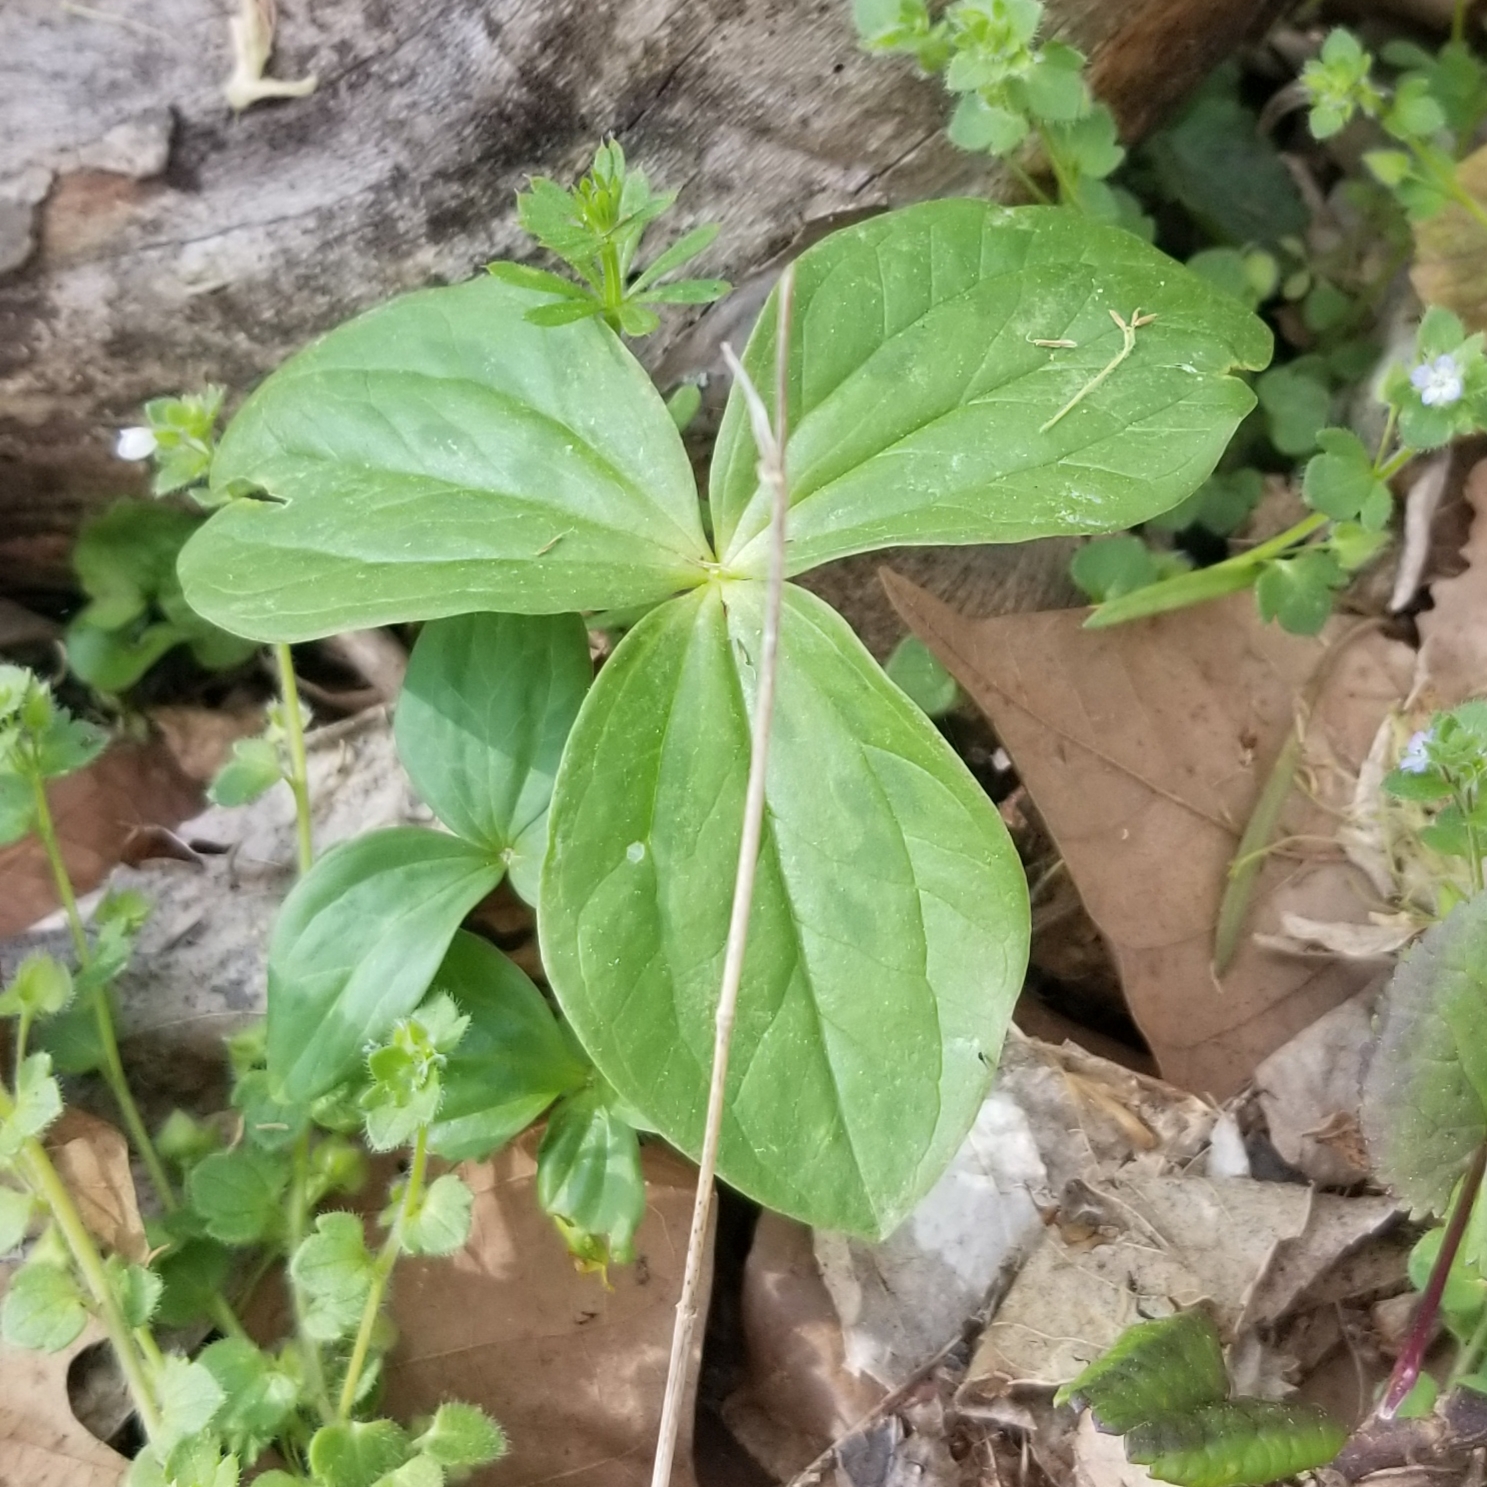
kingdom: Plantae
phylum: Tracheophyta
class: Liliopsida
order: Liliales
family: Melanthiaceae
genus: Trillium
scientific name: Trillium sessile
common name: Sessile trillium
